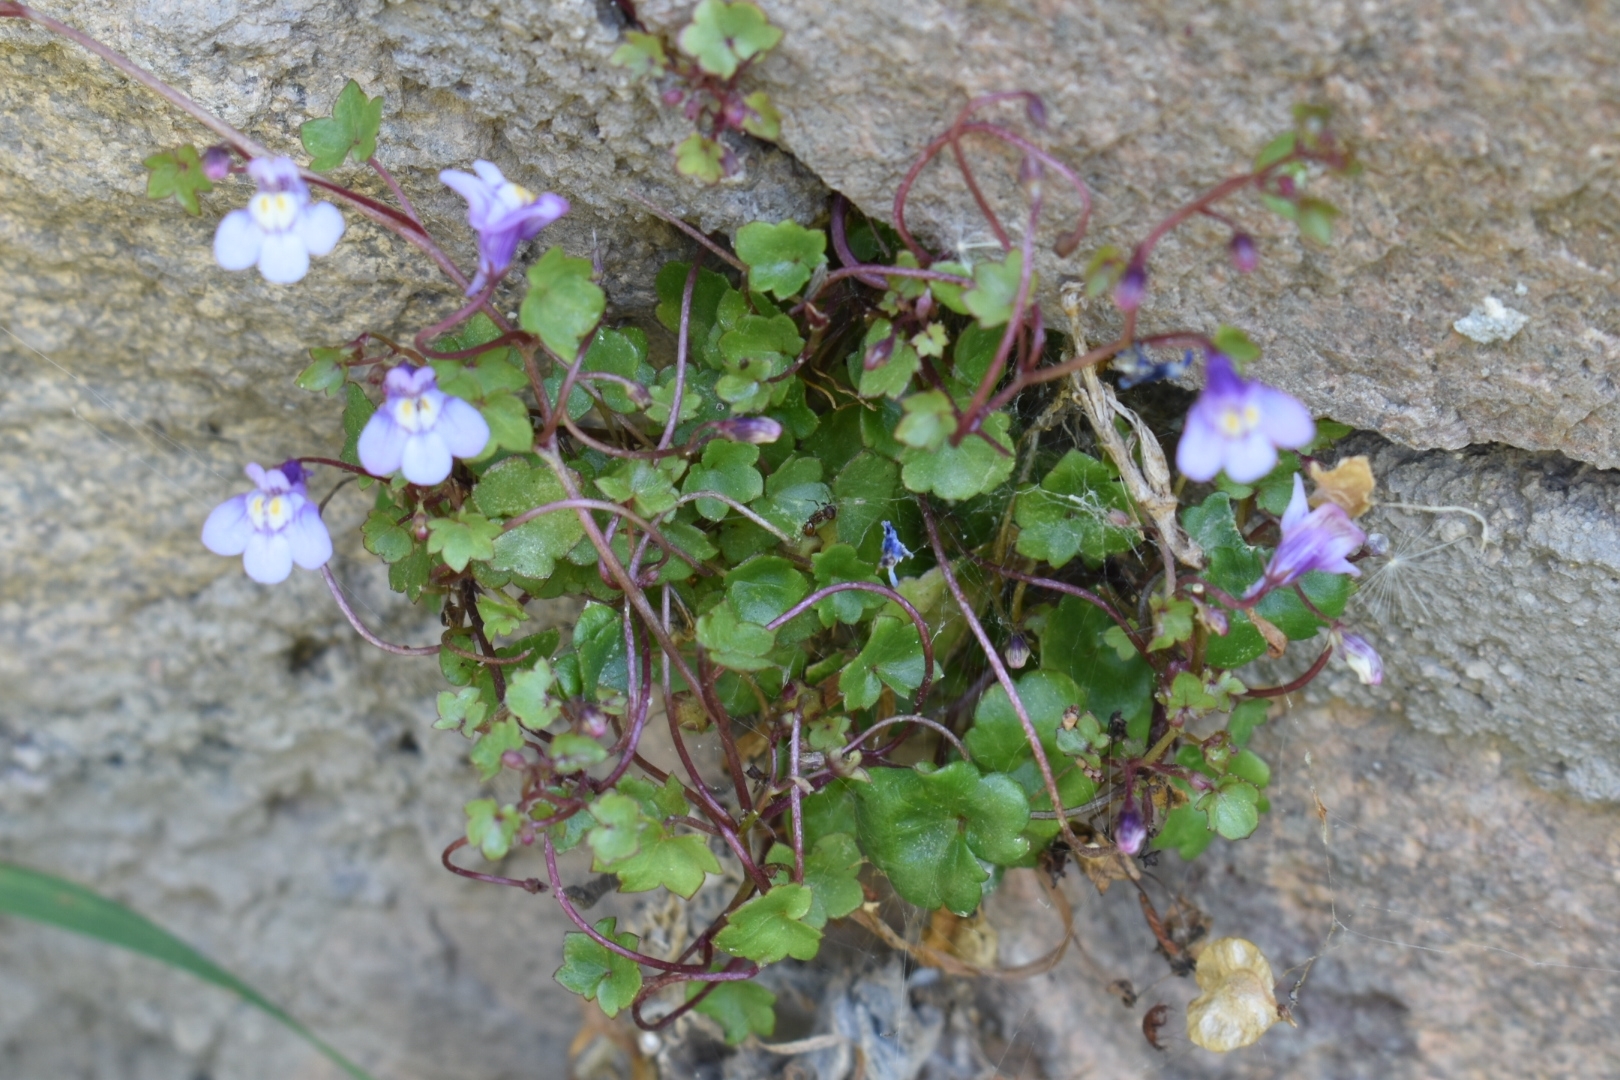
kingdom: Plantae
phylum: Tracheophyta
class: Magnoliopsida
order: Lamiales
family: Plantaginaceae
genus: Cymbalaria
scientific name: Cymbalaria muralis
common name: Ivy-leaved toadflax
